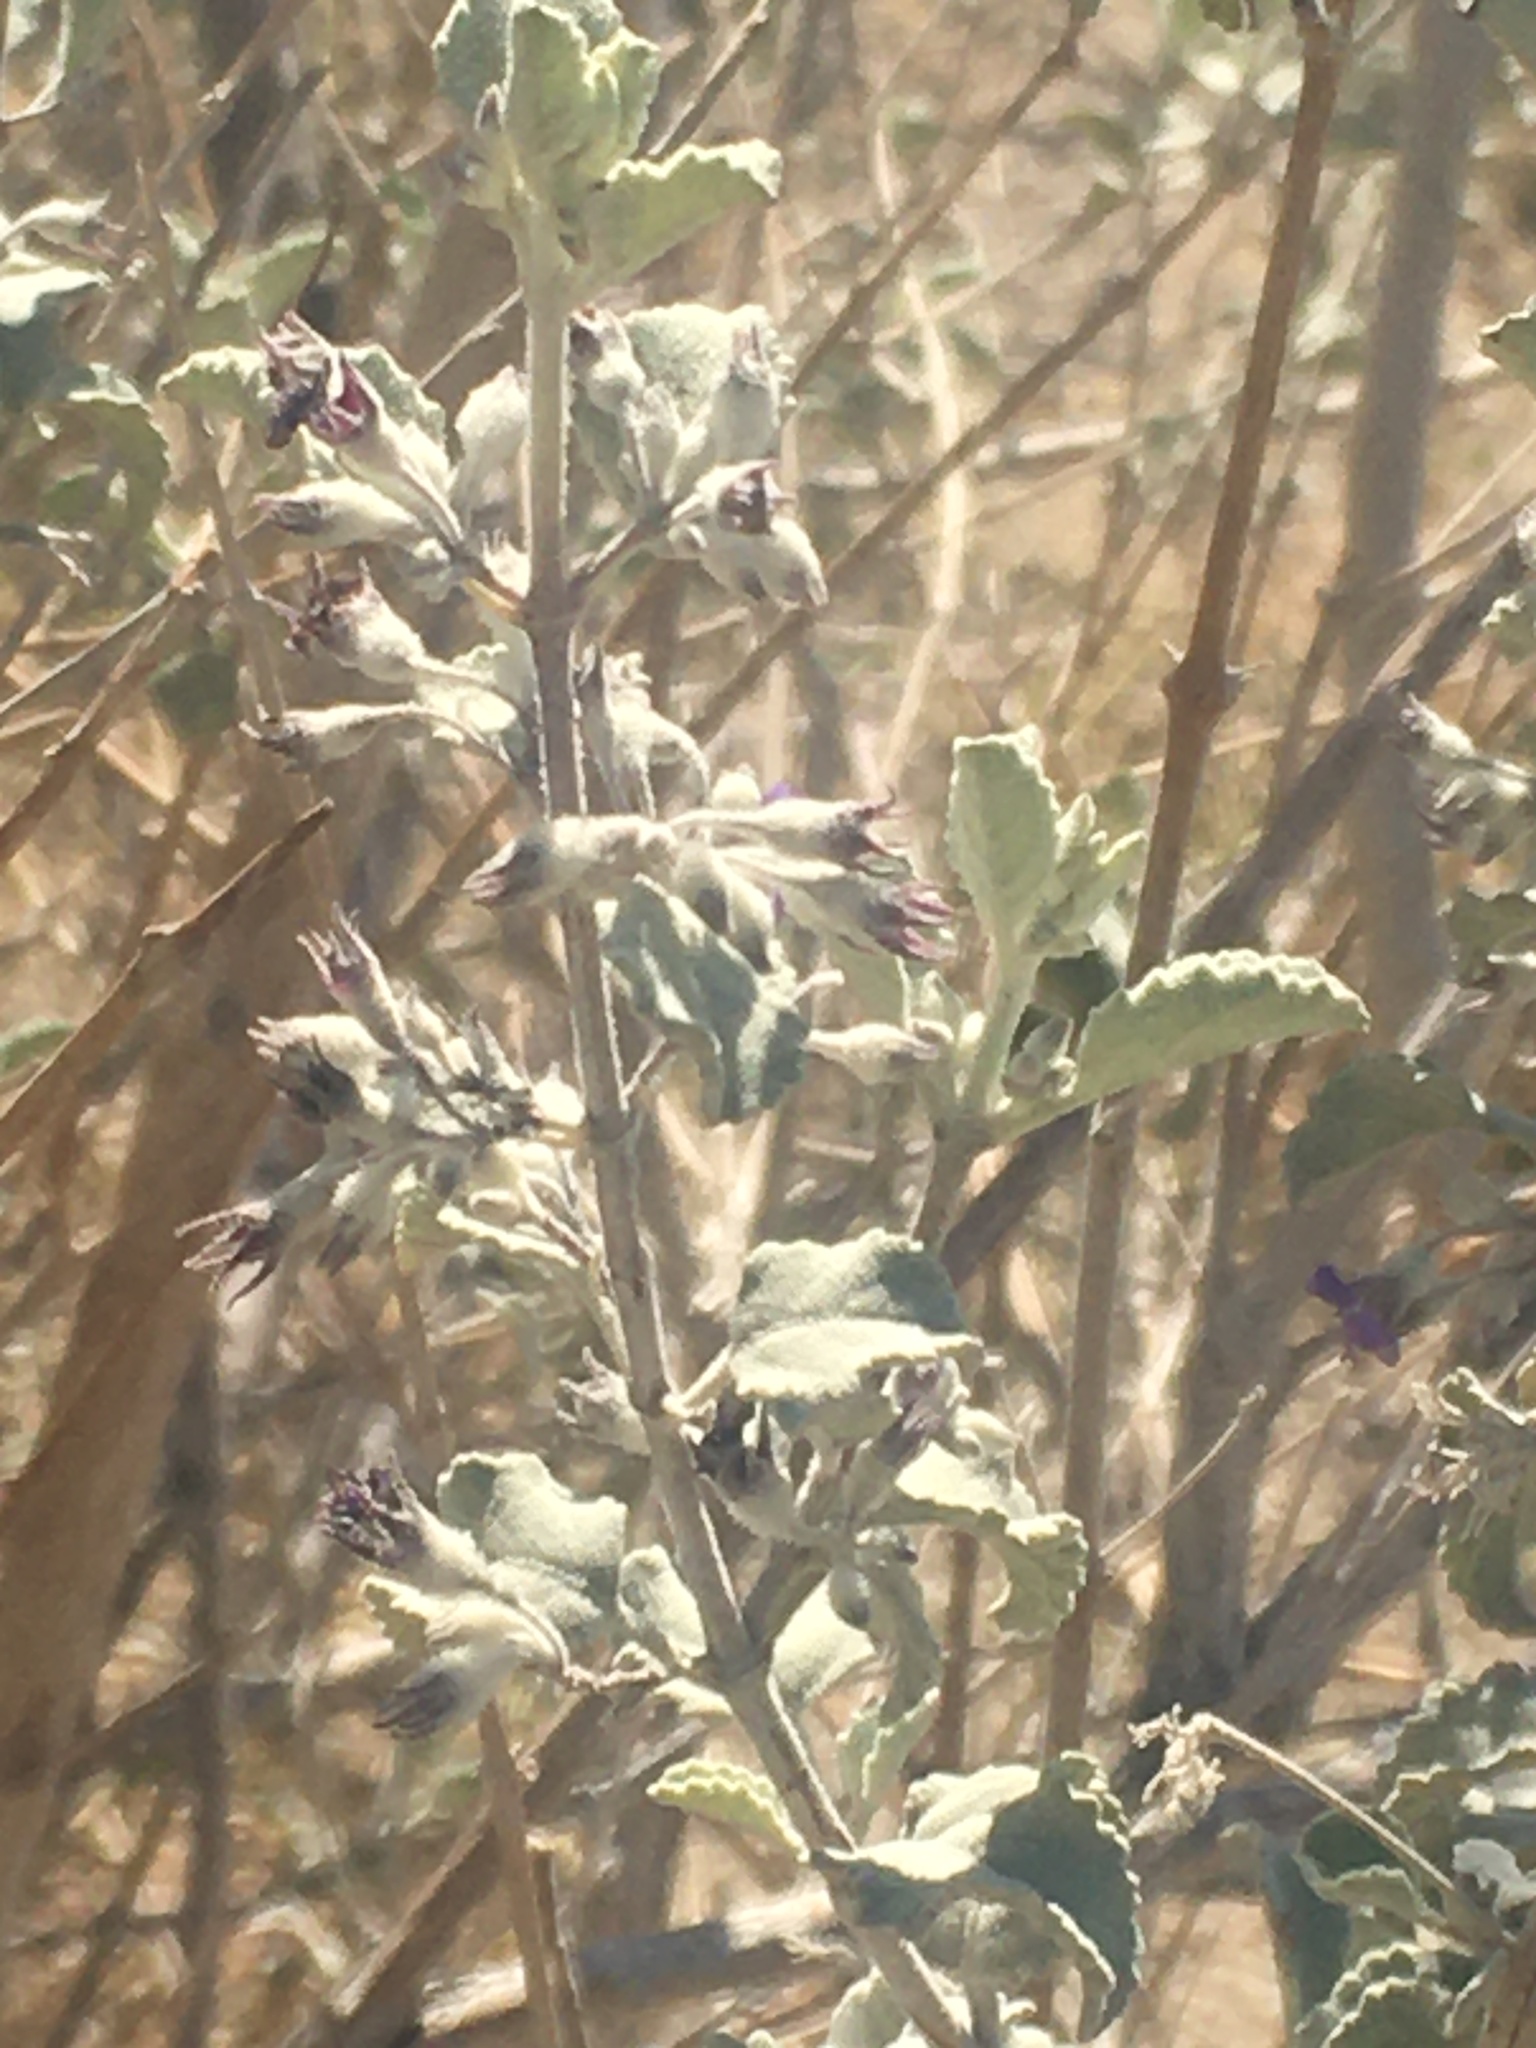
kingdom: Plantae
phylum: Tracheophyta
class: Magnoliopsida
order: Lamiales
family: Lamiaceae
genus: Condea
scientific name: Condea emoryi
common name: Chia
